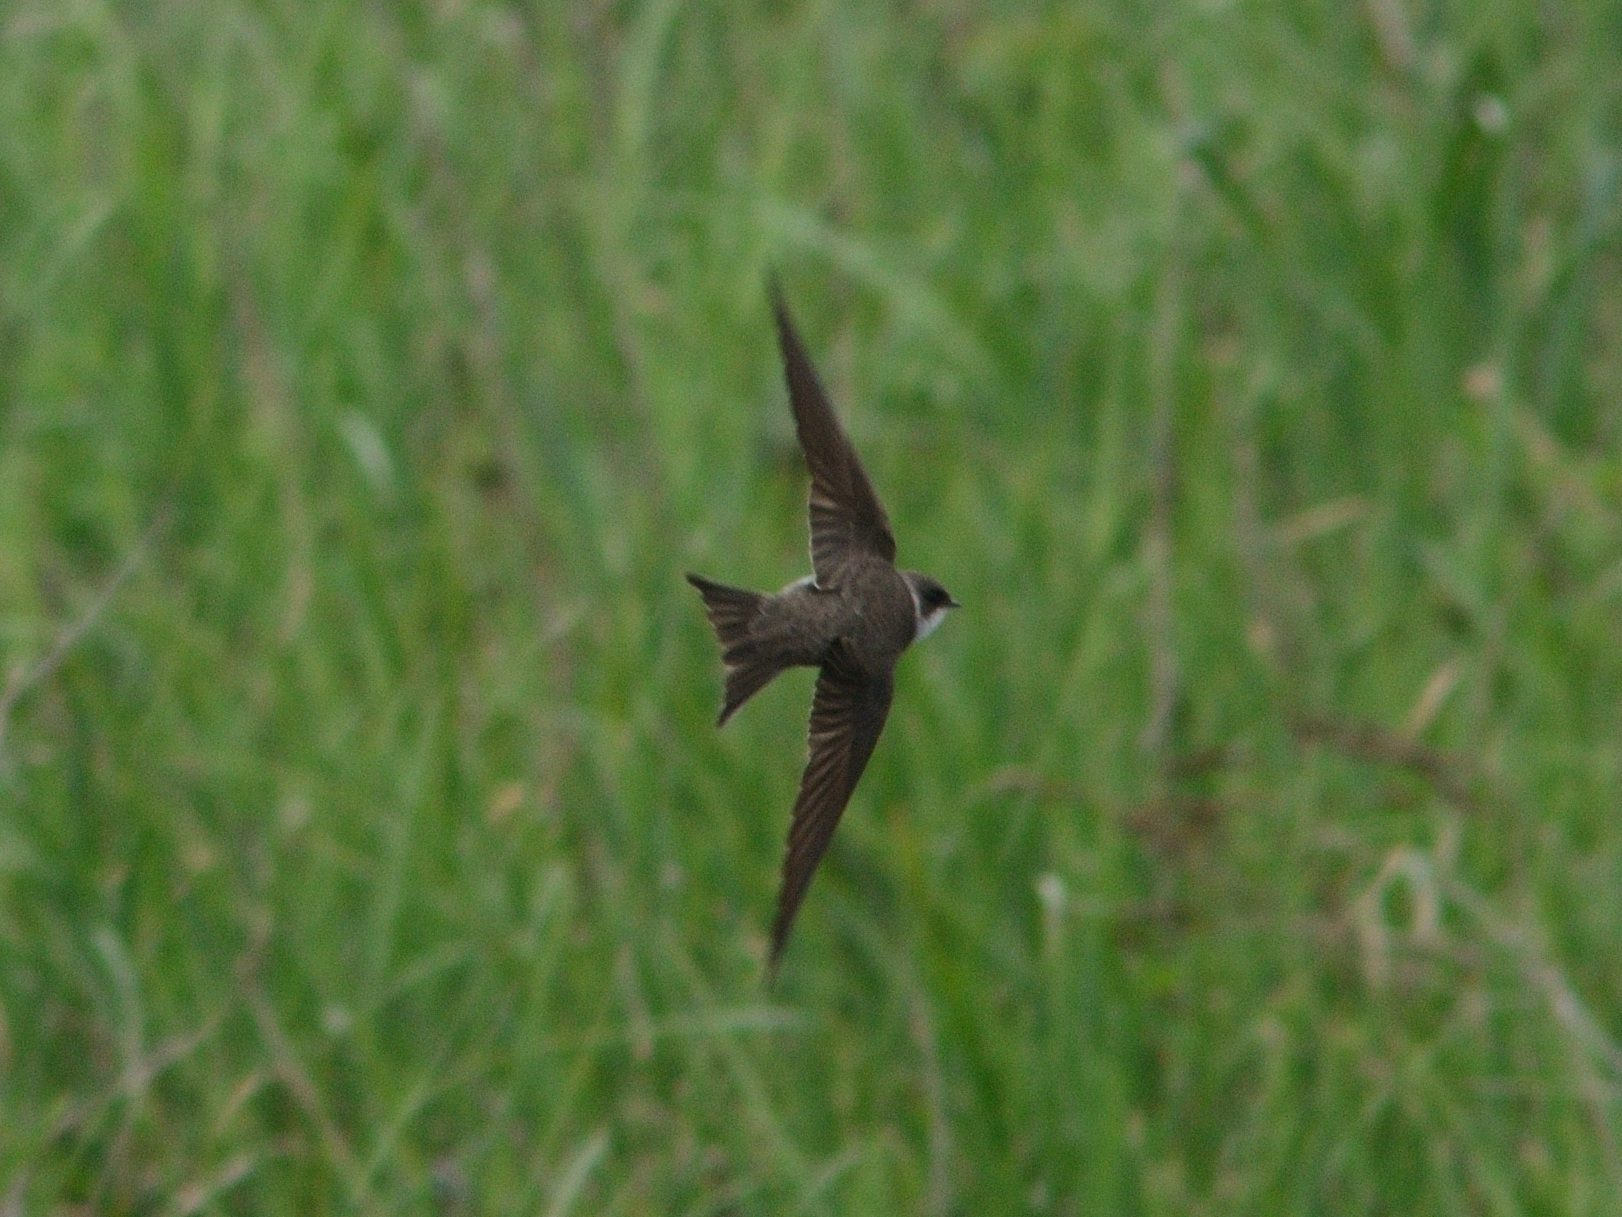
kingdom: Animalia
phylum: Chordata
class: Aves
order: Passeriformes
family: Hirundinidae
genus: Riparia
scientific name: Riparia riparia
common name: Sand martin
